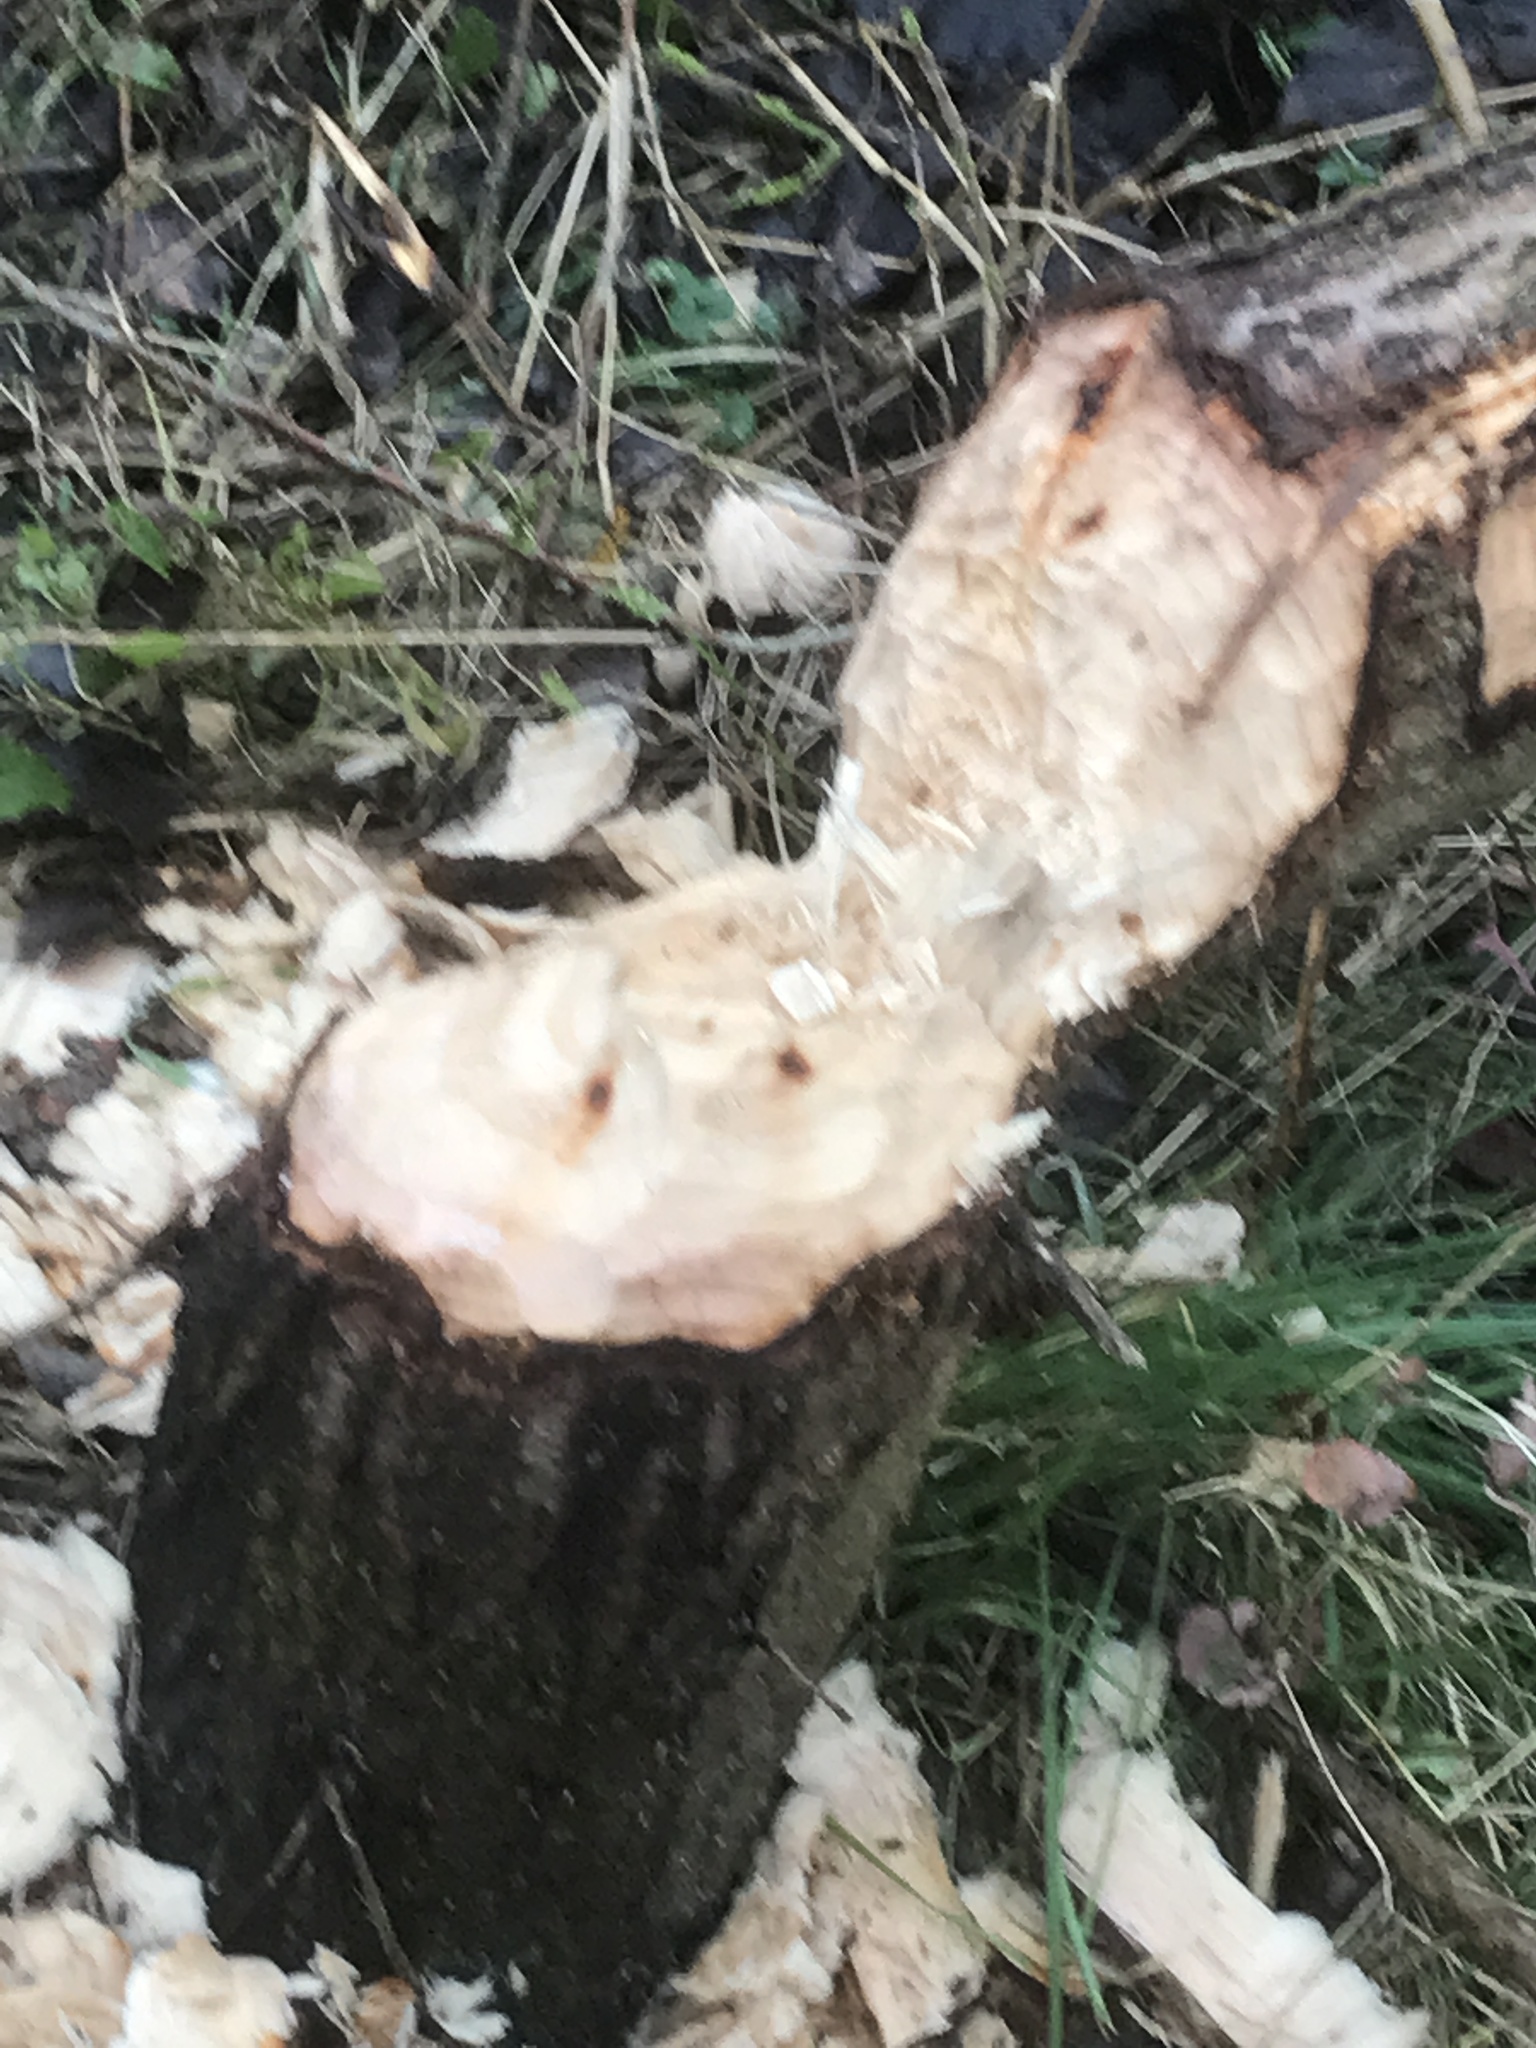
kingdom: Animalia
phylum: Chordata
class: Mammalia
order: Rodentia
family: Castoridae
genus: Castor
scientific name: Castor fiber
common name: Eurasian beaver
